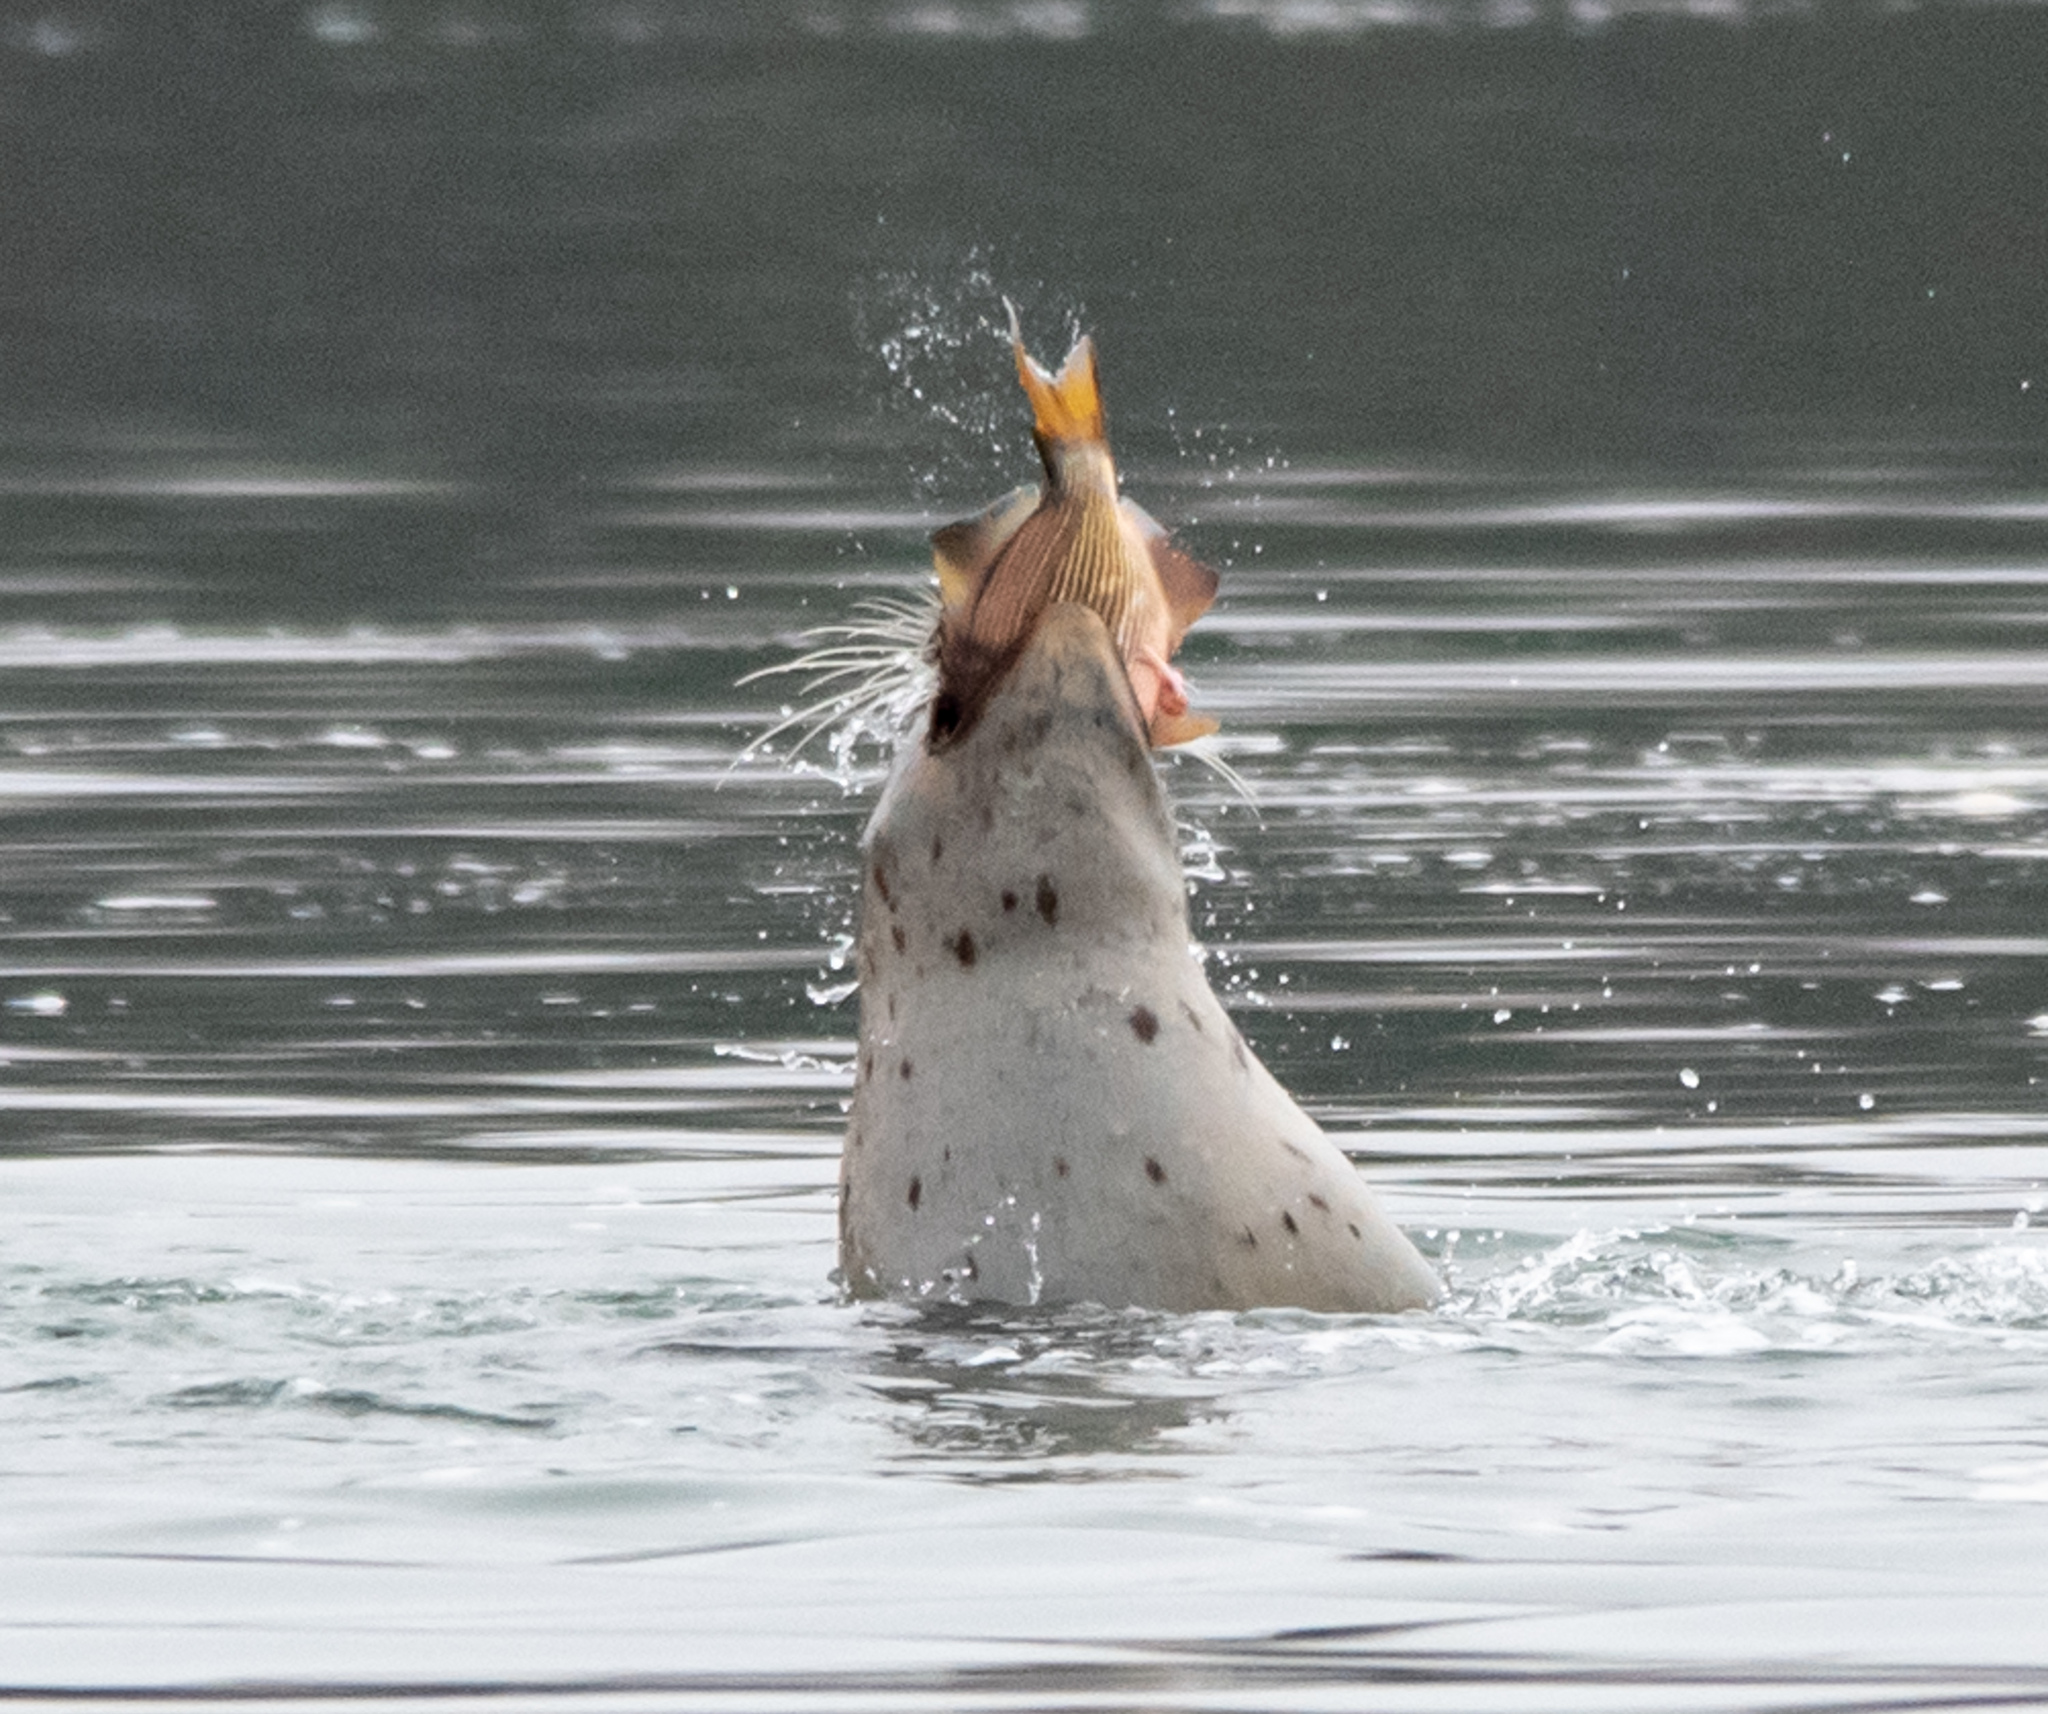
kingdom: Animalia
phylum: Chordata
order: Perciformes
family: Embiotocidae
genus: Embiotoca
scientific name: Embiotoca lateralis
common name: Striped surfperch
